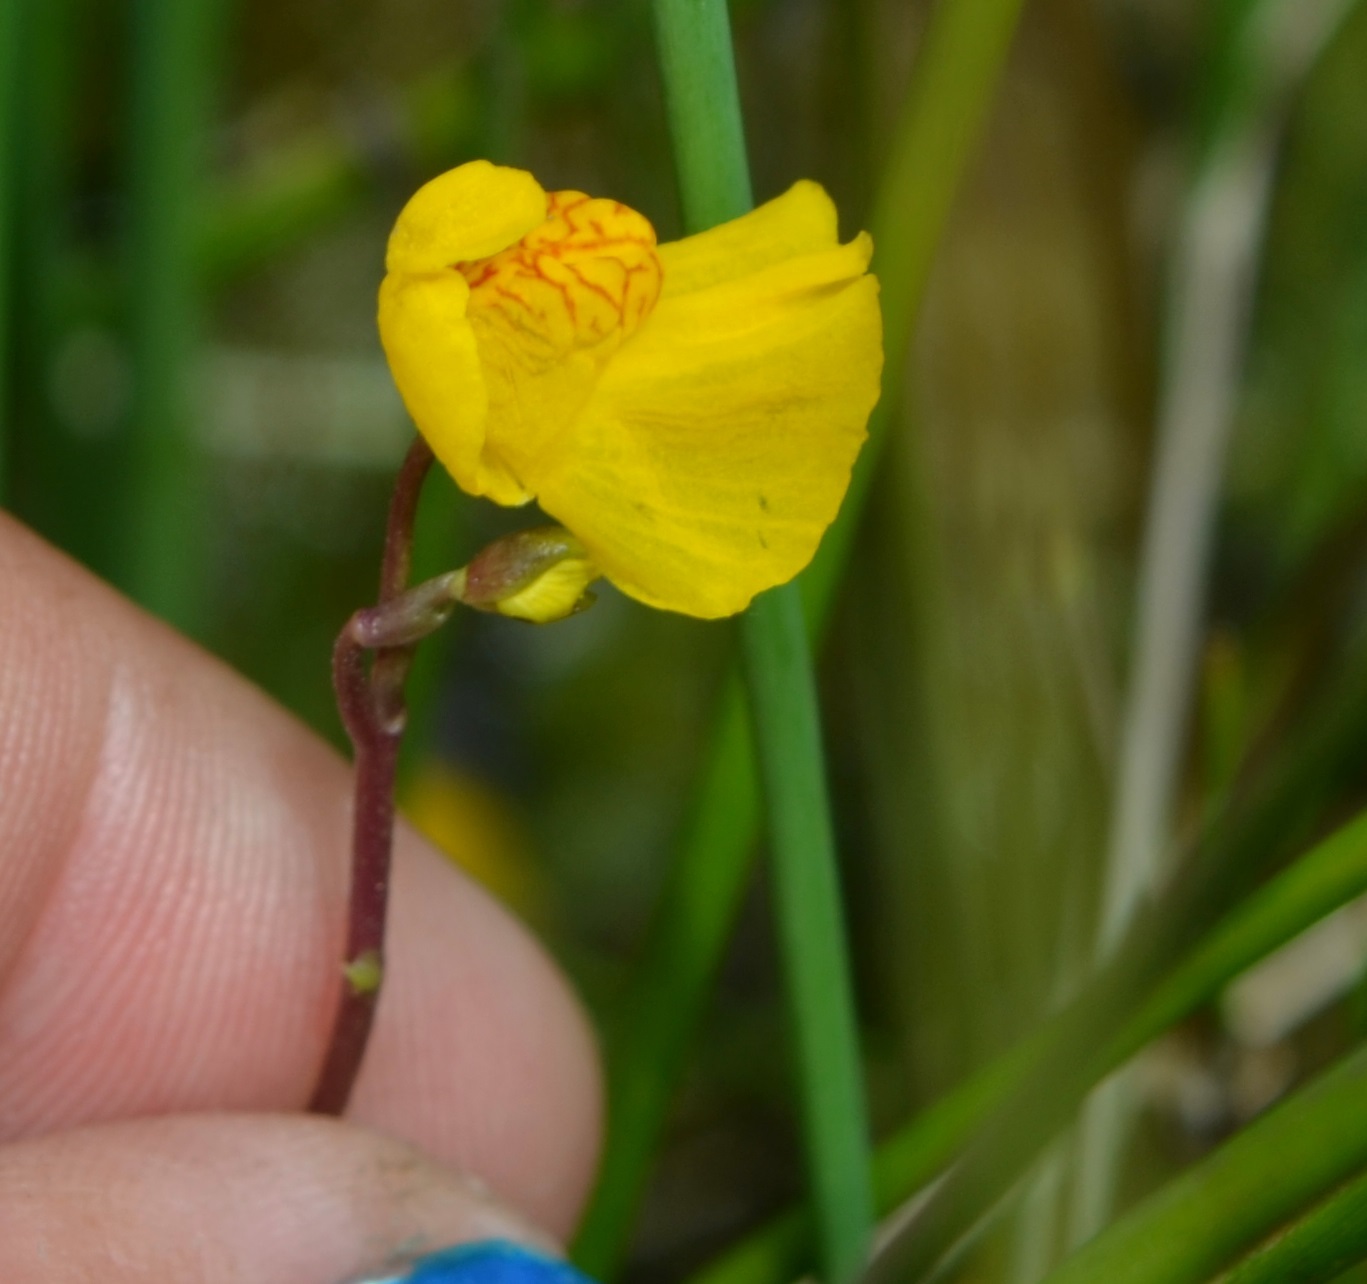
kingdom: Plantae
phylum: Tracheophyta
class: Magnoliopsida
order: Lamiales
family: Lentibulariaceae
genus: Utricularia
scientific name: Utricularia macrorhiza
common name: Common bladderwort
